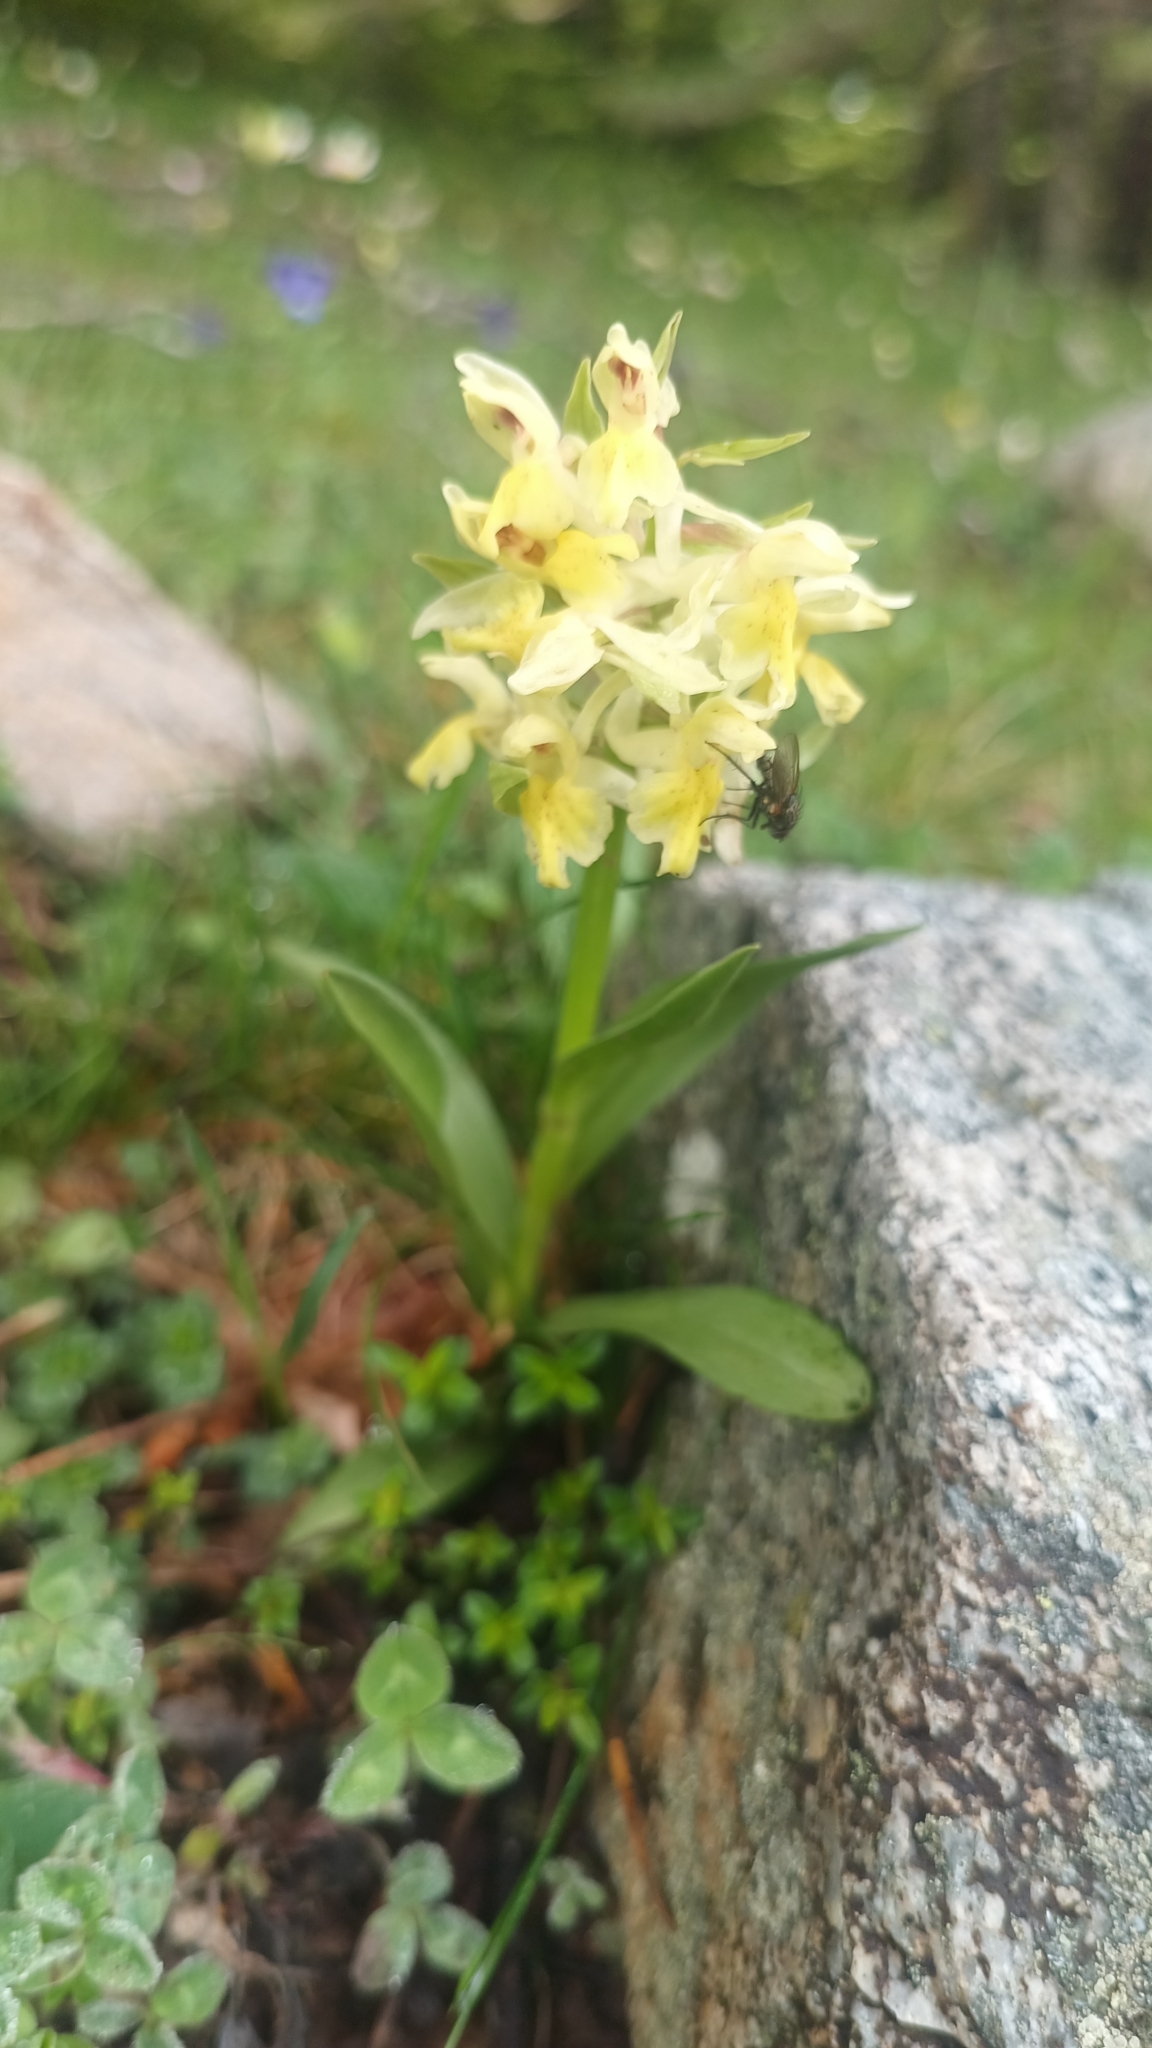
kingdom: Plantae
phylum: Tracheophyta
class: Liliopsida
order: Asparagales
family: Orchidaceae
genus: Dactylorhiza
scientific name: Dactylorhiza sambucina
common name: Elder-flowered orchid
